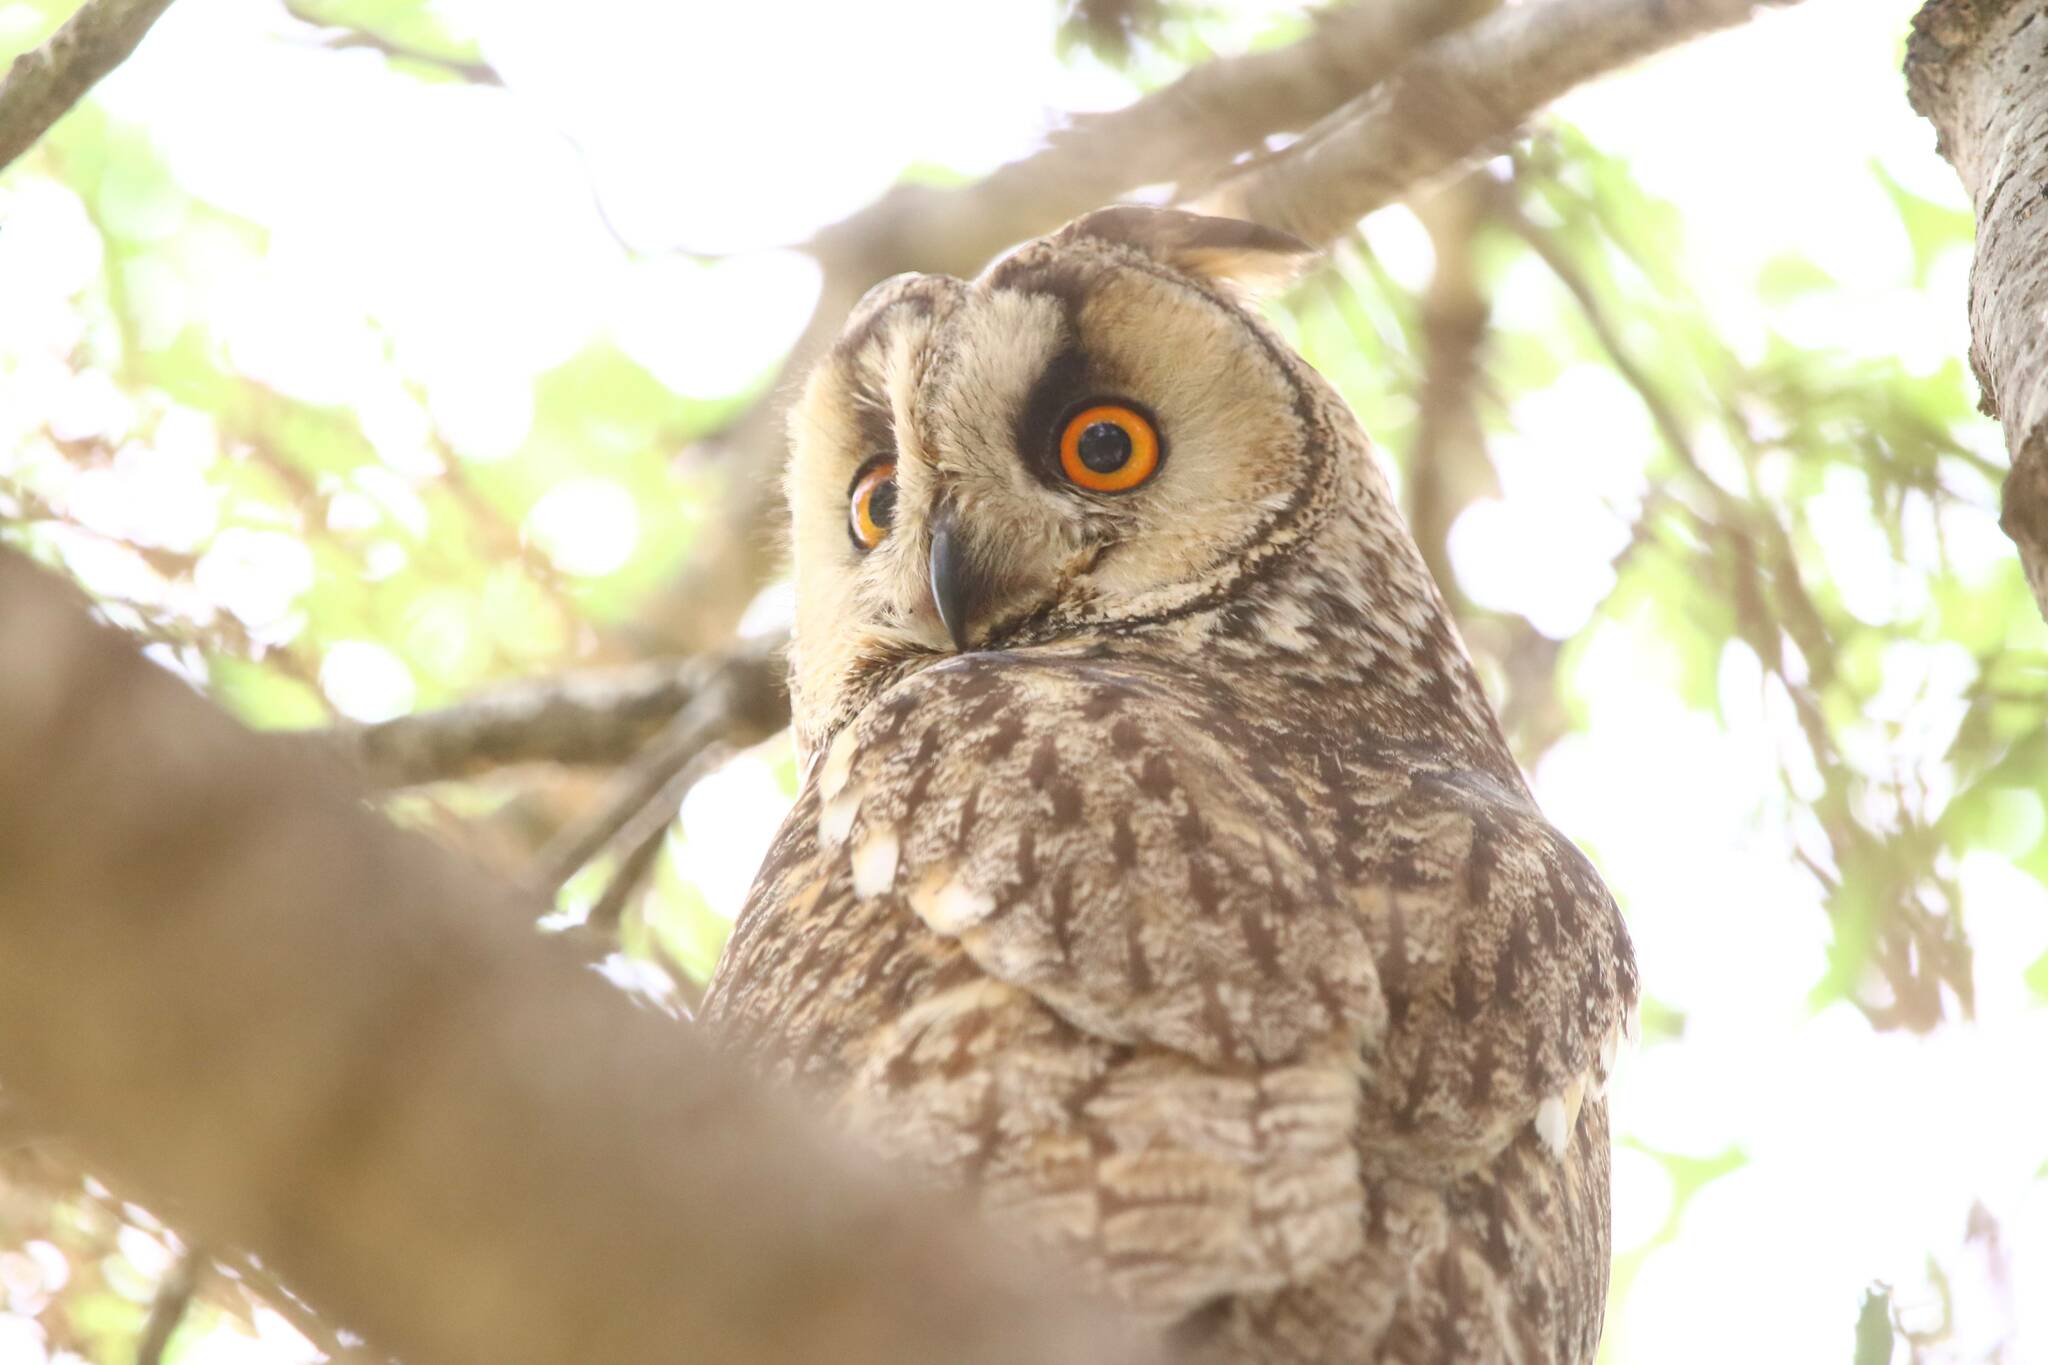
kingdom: Animalia
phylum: Chordata
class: Aves
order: Strigiformes
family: Strigidae
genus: Asio
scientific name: Asio otus
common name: Long-eared owl
